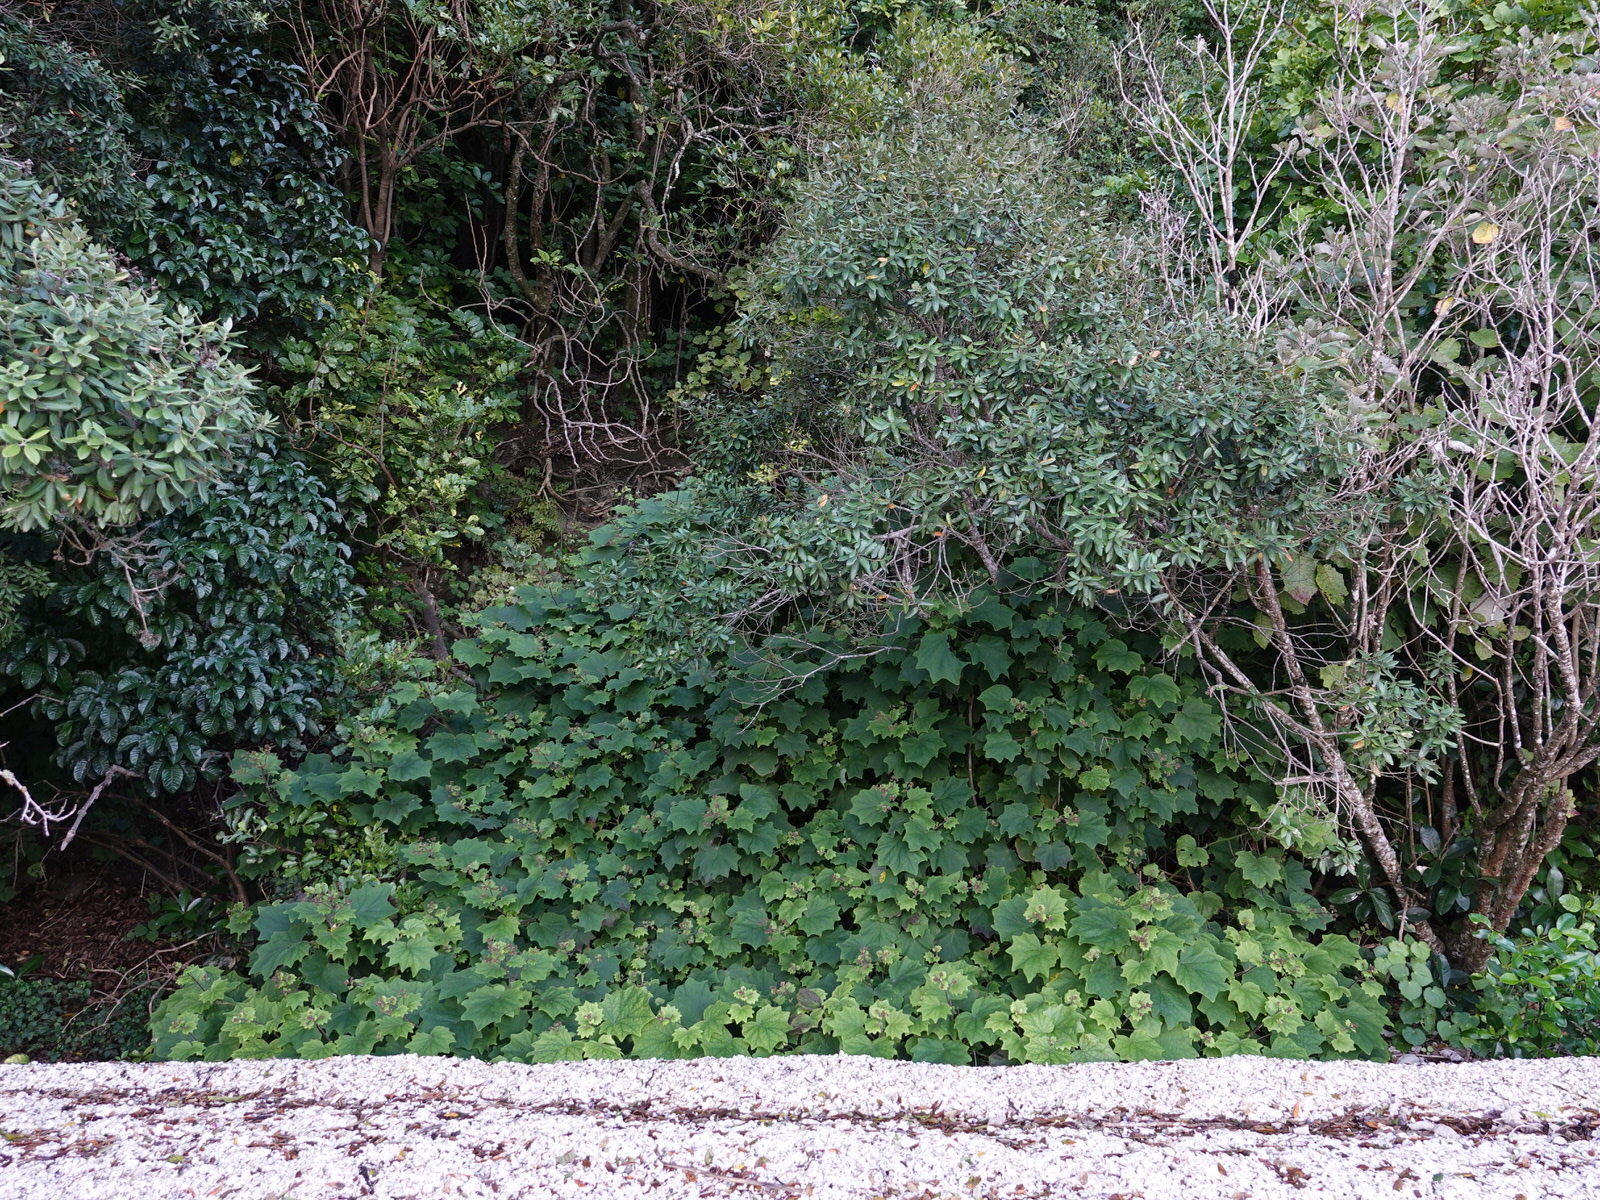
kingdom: Plantae
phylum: Tracheophyta
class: Magnoliopsida
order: Asterales
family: Asteraceae
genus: Roldana
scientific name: Roldana petasitis
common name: California-geranium
